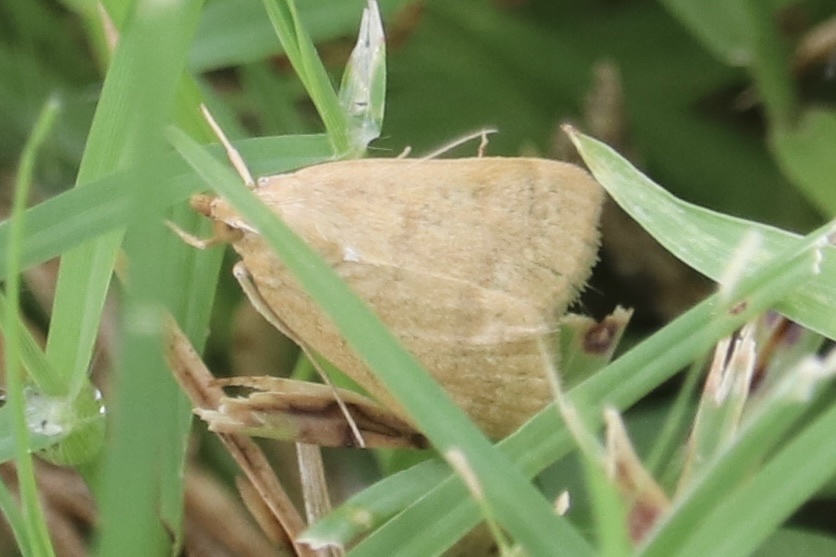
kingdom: Animalia
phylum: Arthropoda
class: Insecta
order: Lepidoptera
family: Crambidae
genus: Achyra
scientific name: Achyra rantalis
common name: Garden webworm
